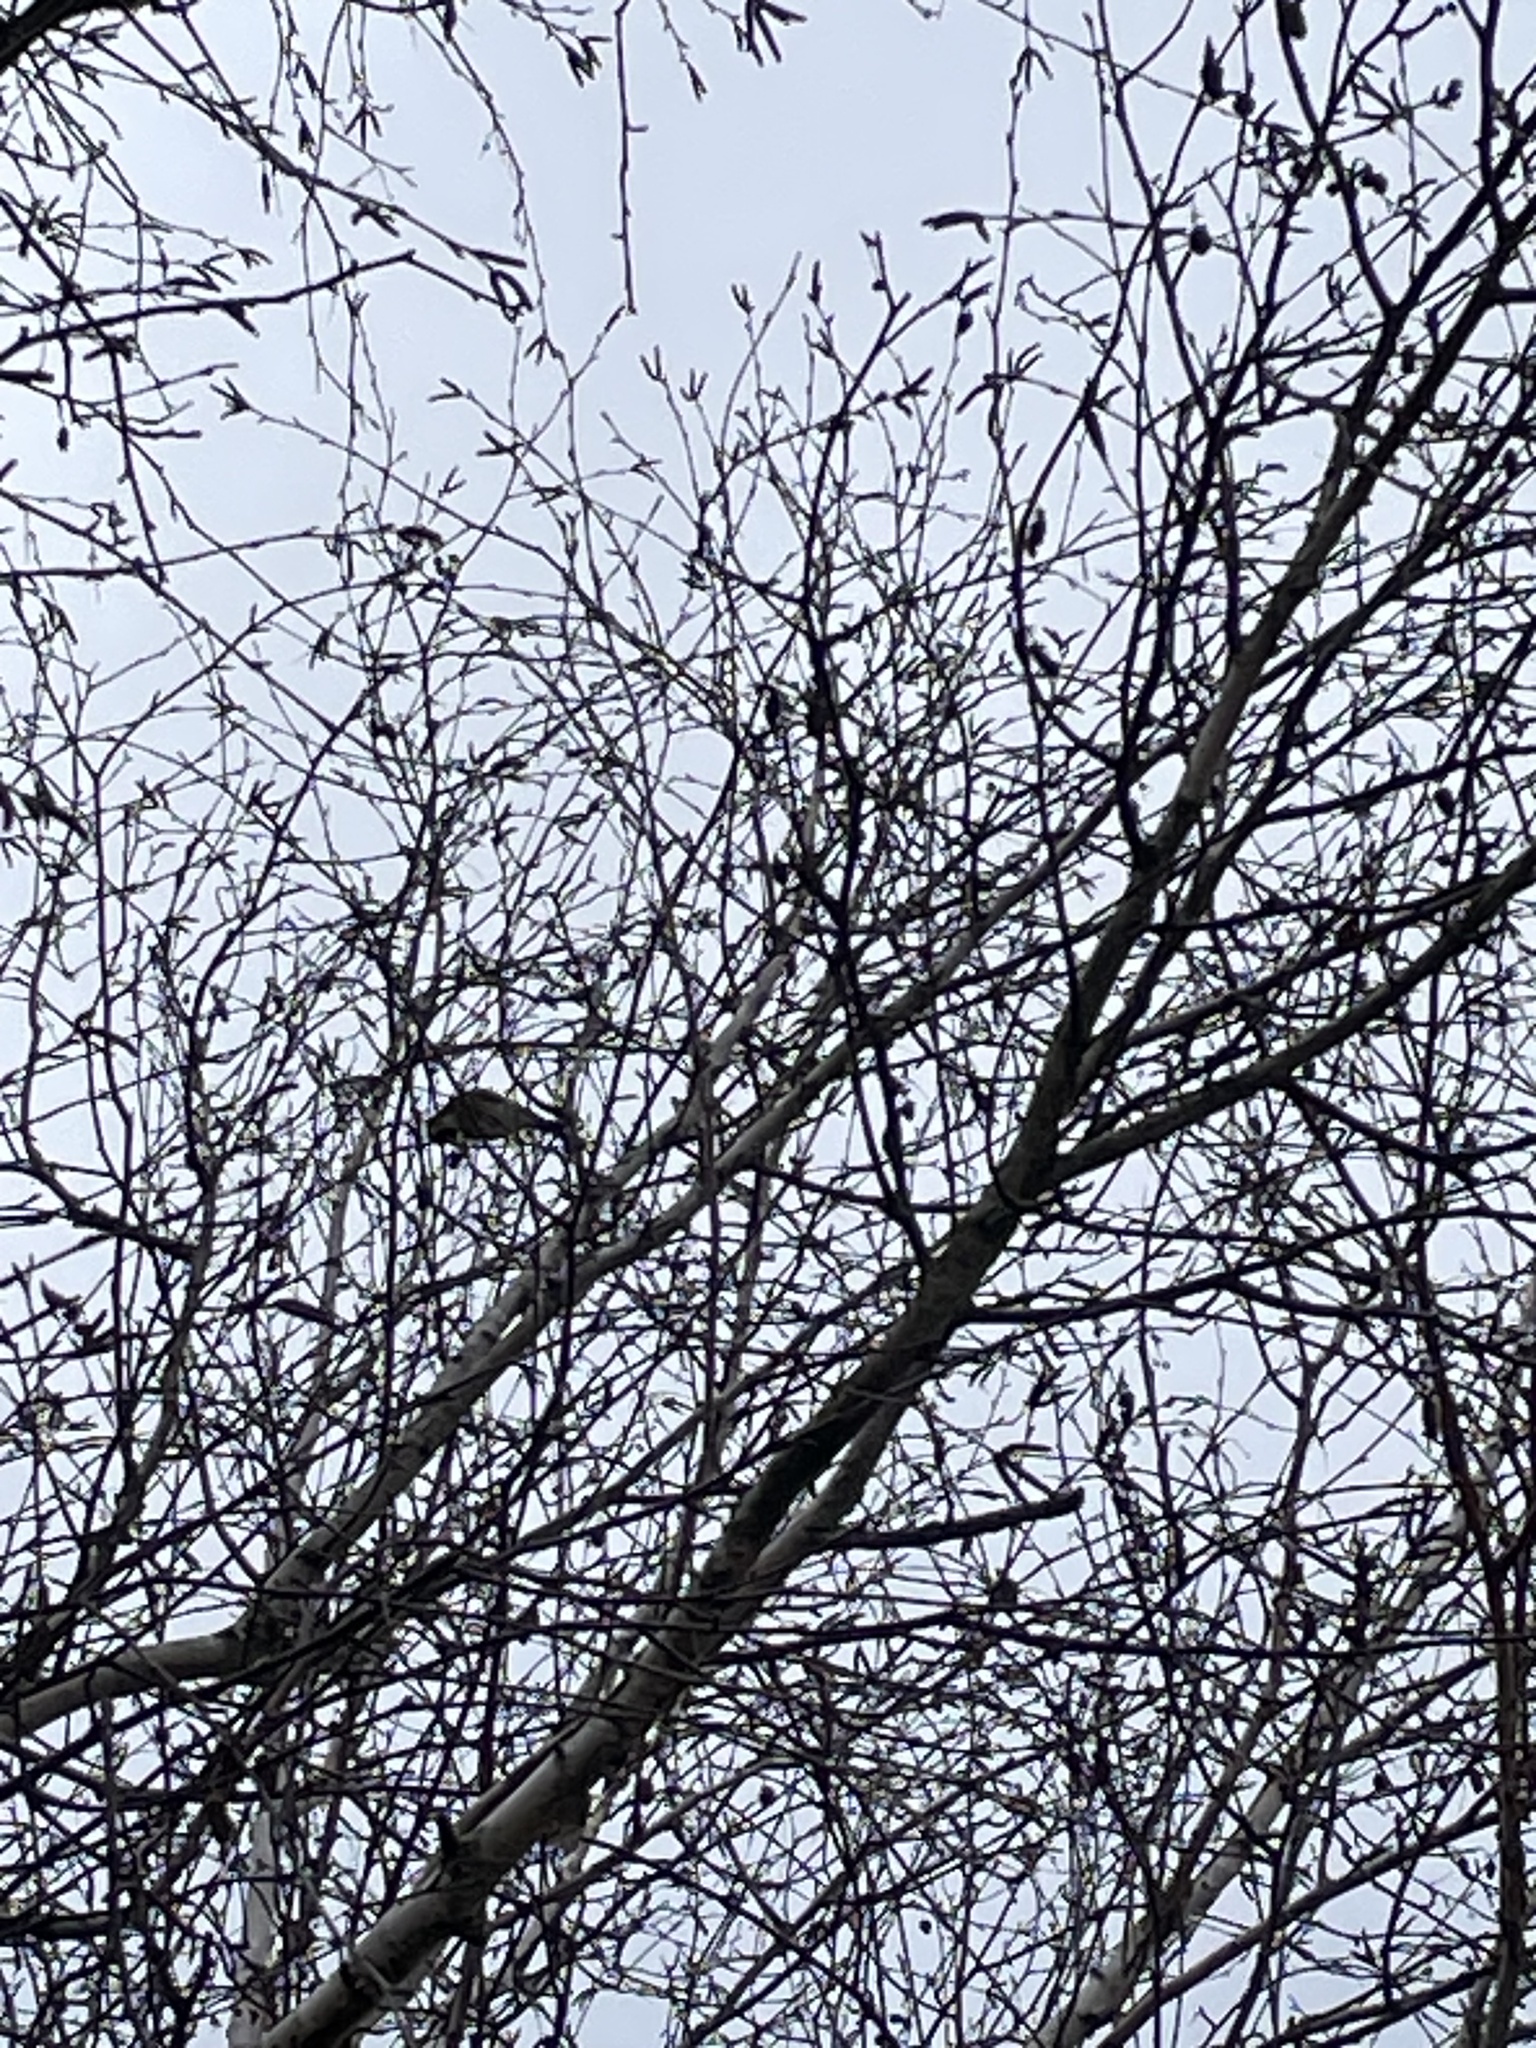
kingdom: Animalia
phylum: Chordata
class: Aves
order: Passeriformes
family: Fringillidae
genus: Carduelis
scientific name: Carduelis carduelis
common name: European goldfinch
